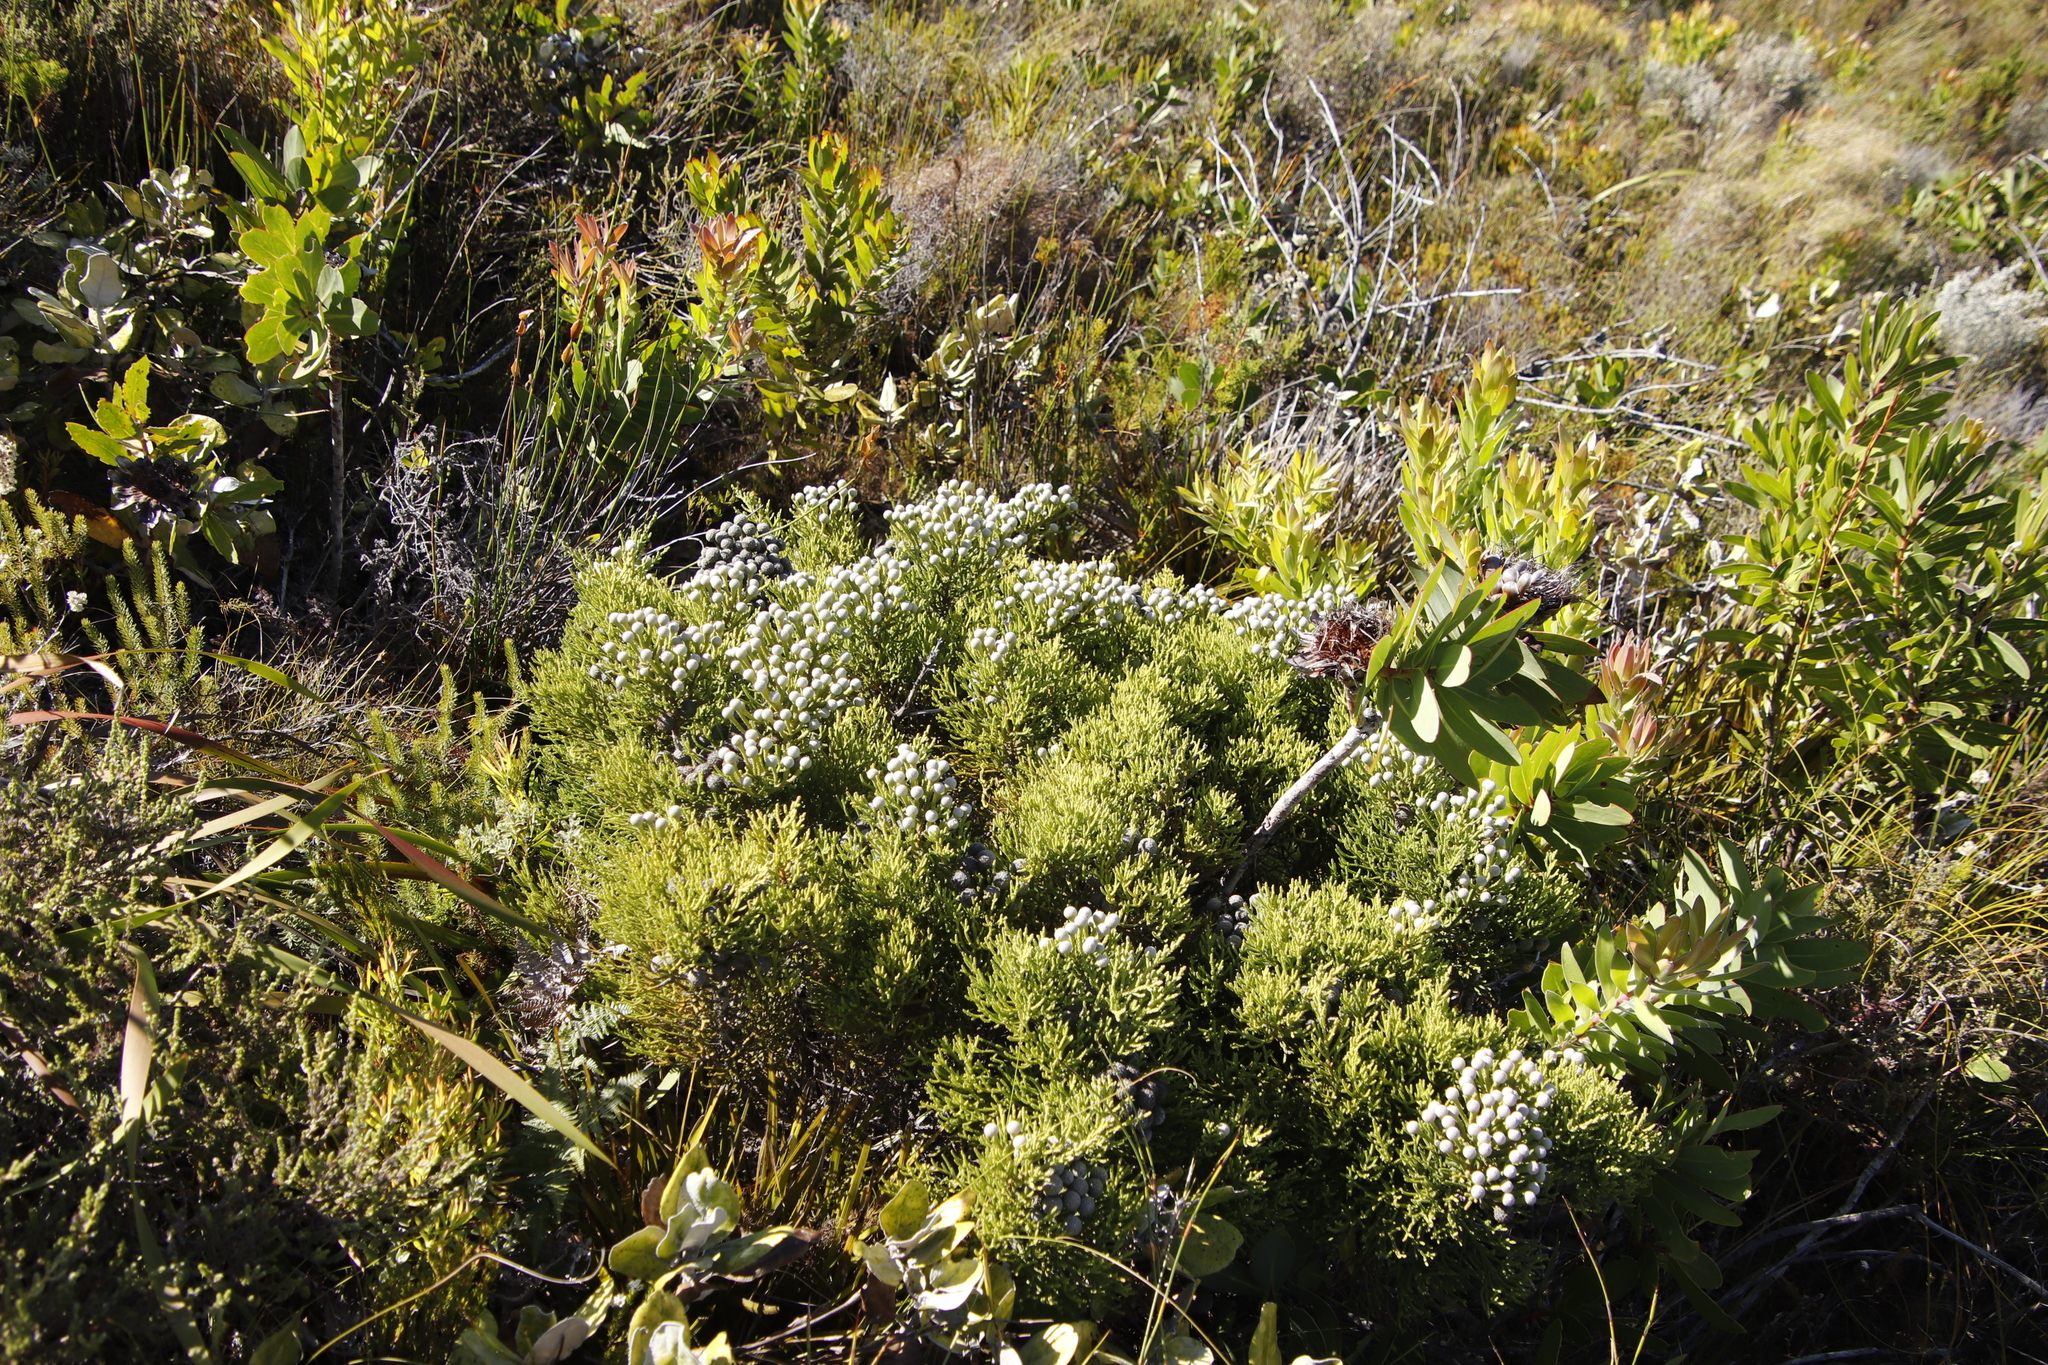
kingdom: Plantae
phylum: Tracheophyta
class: Magnoliopsida
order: Bruniales
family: Bruniaceae
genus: Brunia
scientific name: Brunia noduliflora
